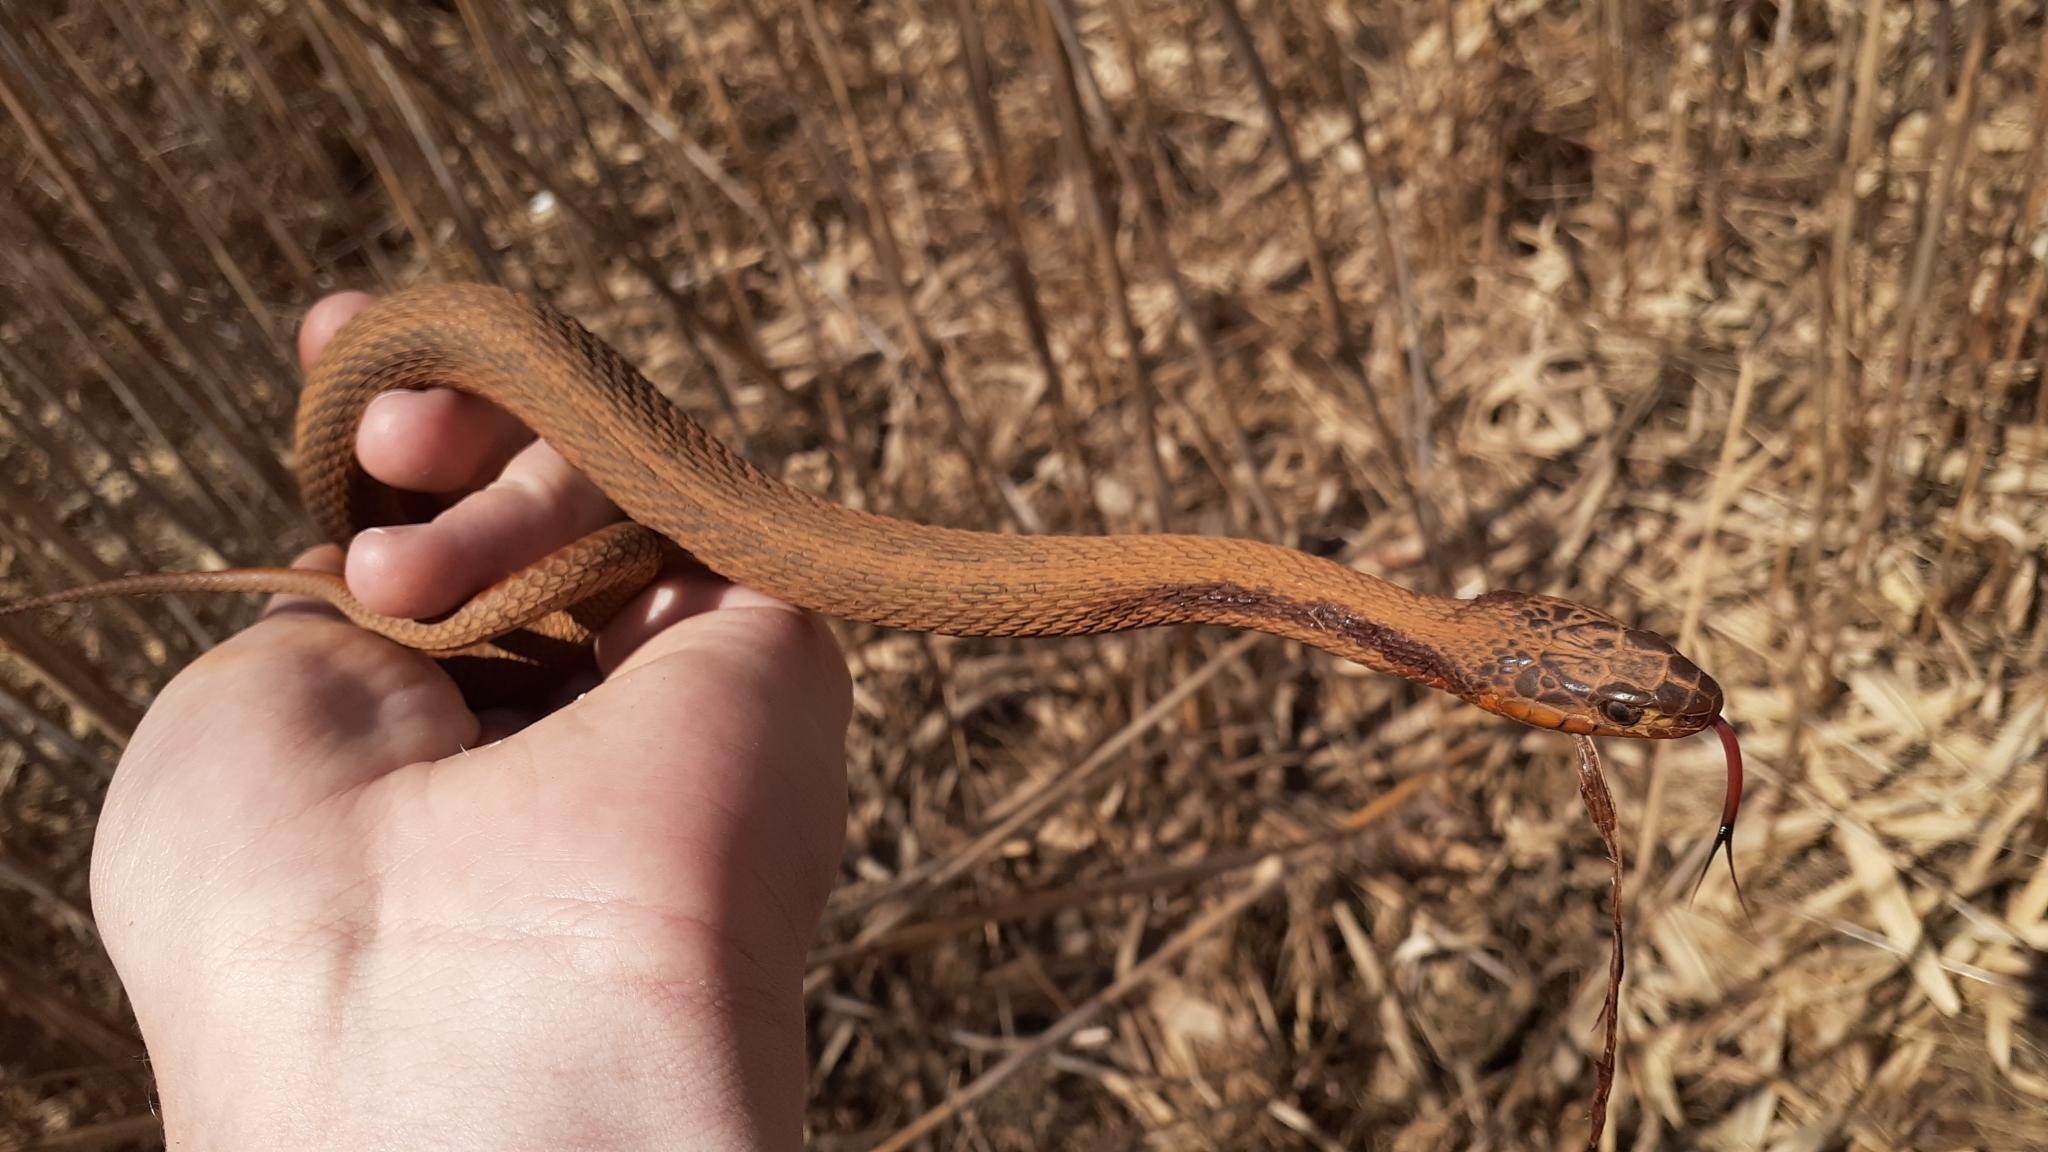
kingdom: Animalia
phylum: Chordata
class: Squamata
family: Colubridae
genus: Thamnophis
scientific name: Thamnophis sirtalis
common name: Common garter snake
